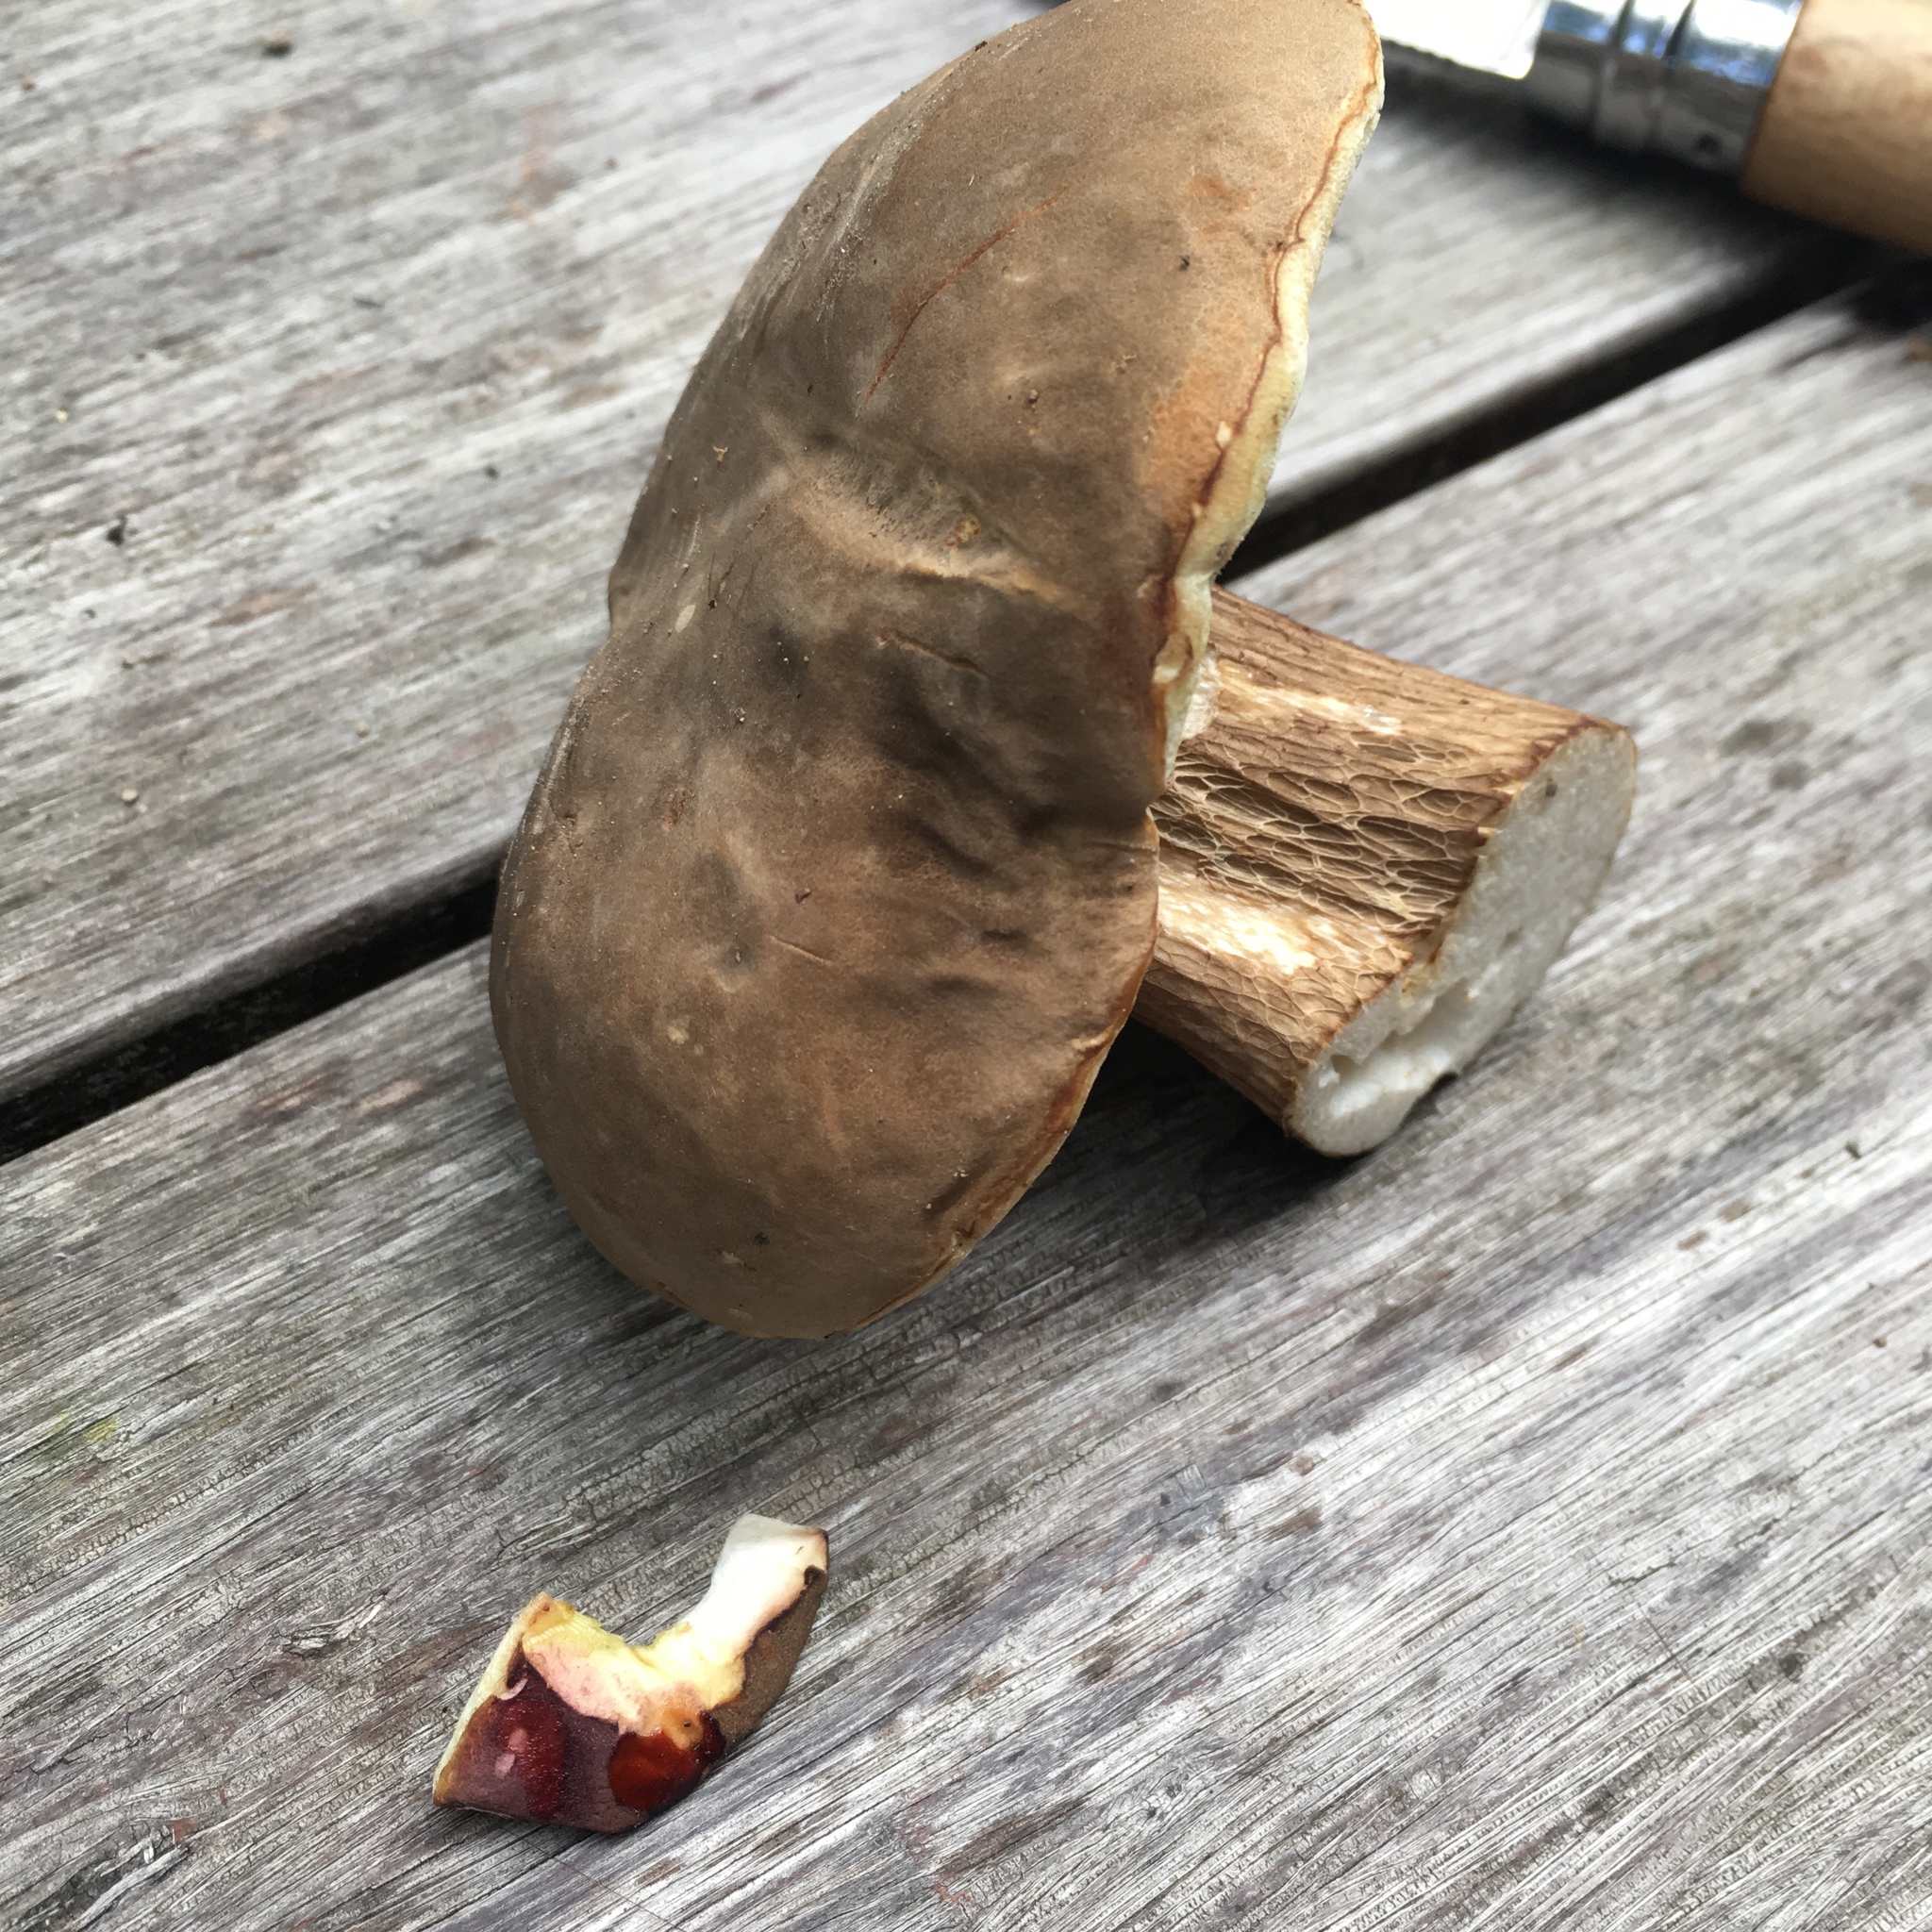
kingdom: Fungi
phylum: Basidiomycota
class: Agaricomycetes
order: Boletales
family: Boletaceae
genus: Boletus
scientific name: Boletus variipes
